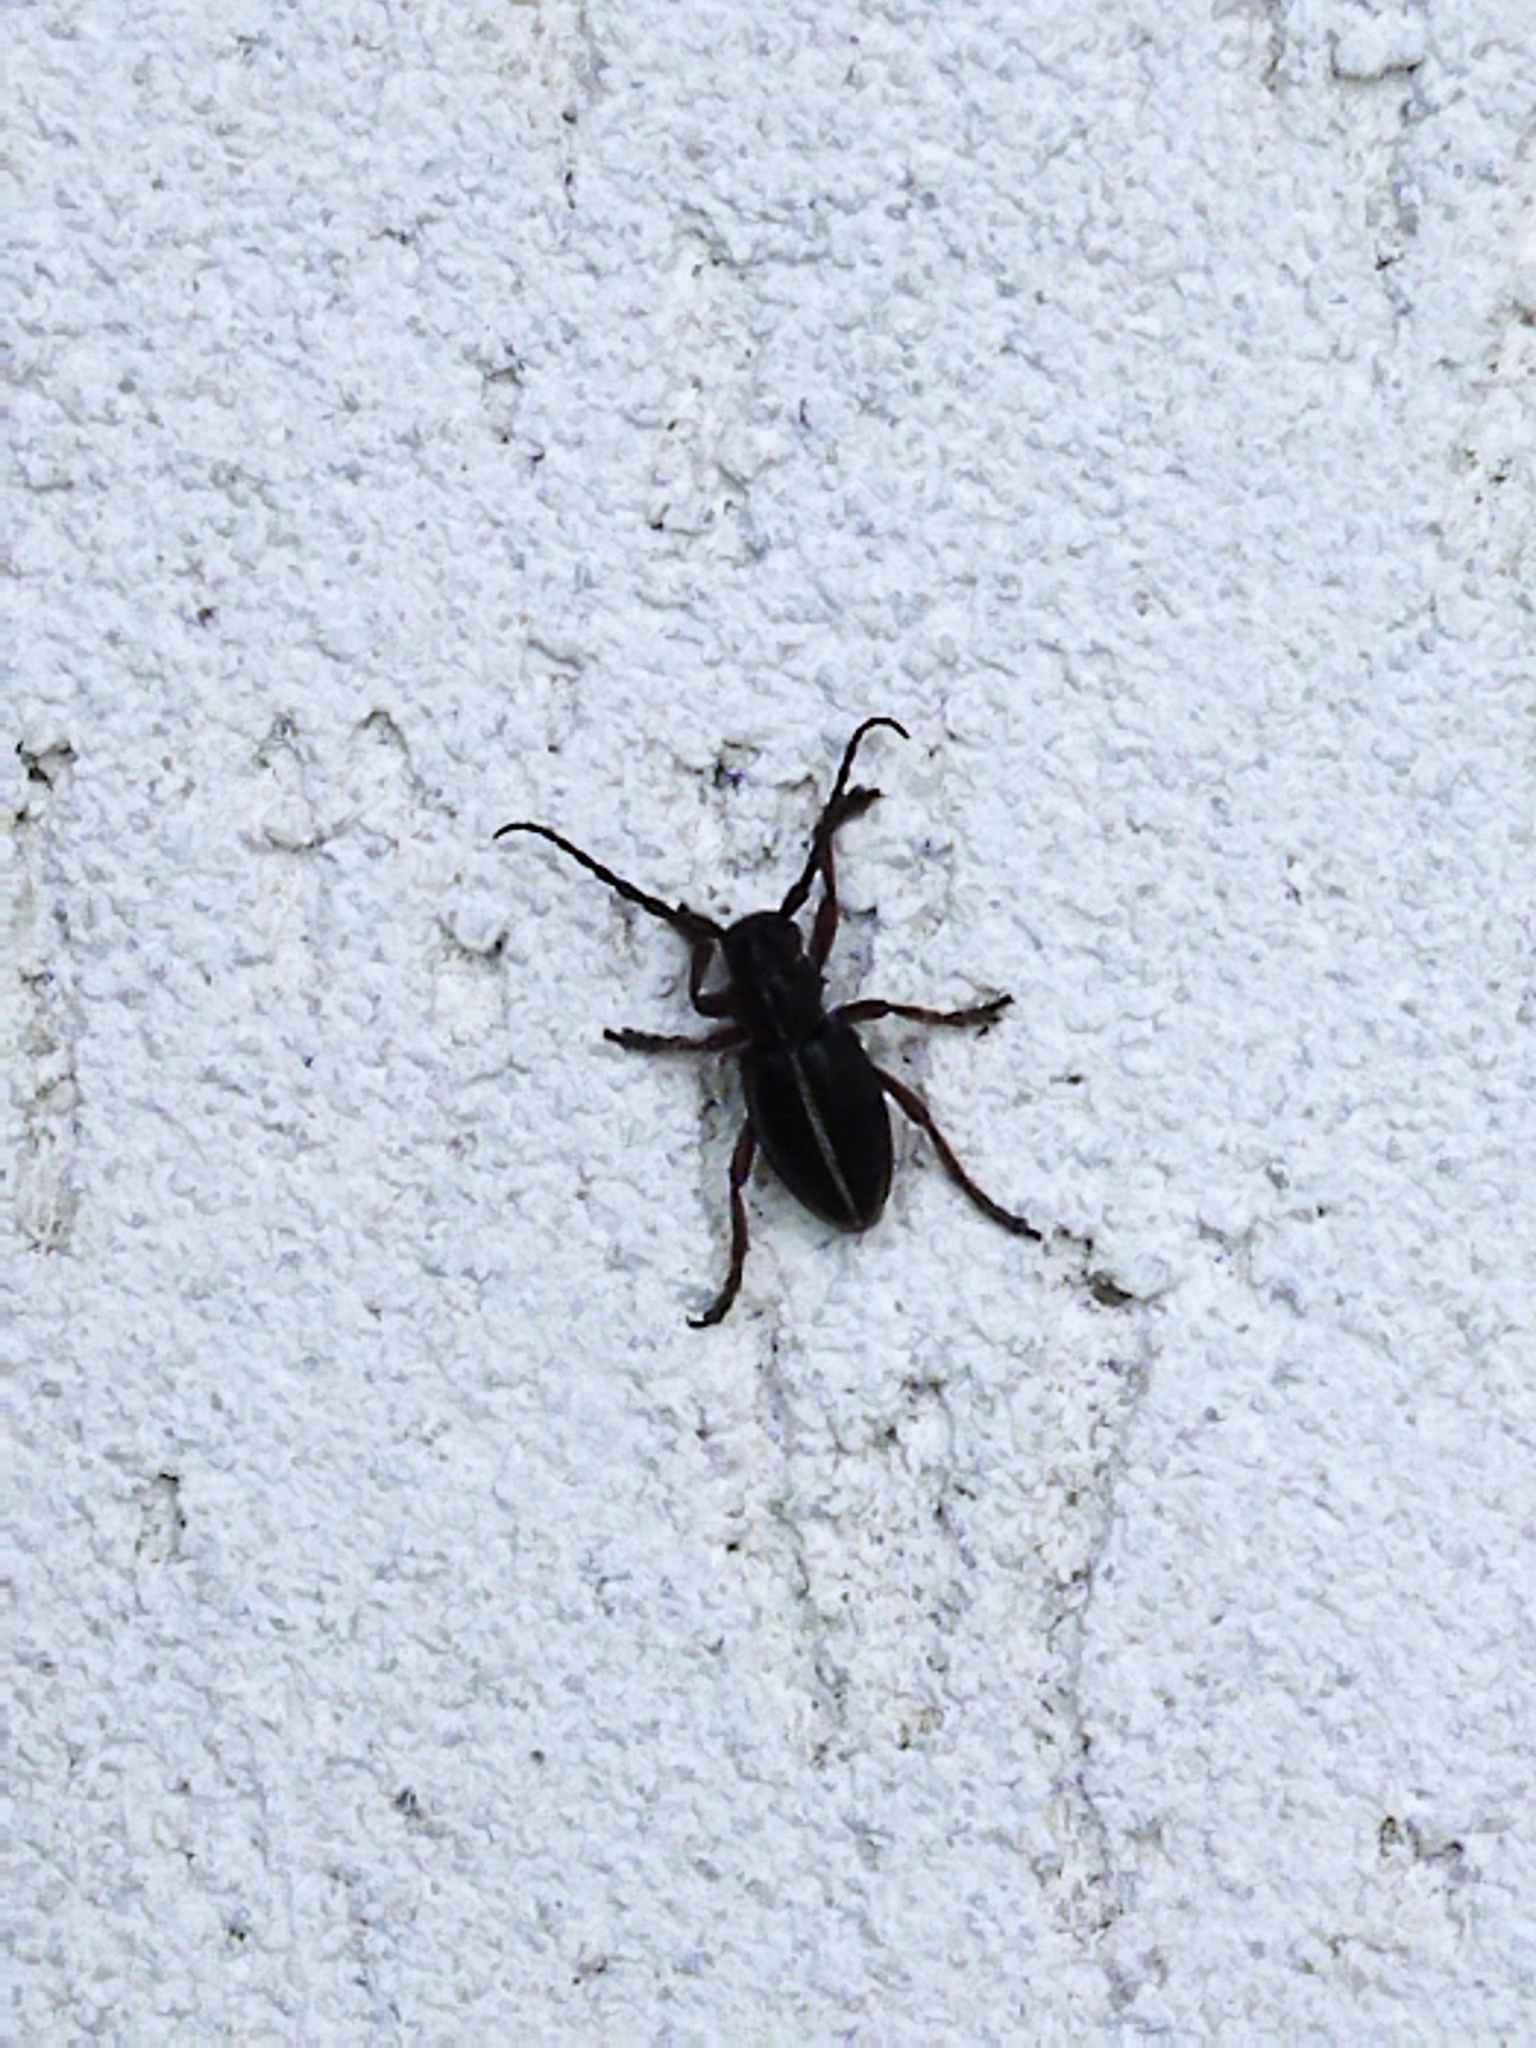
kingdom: Animalia
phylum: Arthropoda
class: Insecta
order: Coleoptera
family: Cerambycidae
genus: Dorcadion
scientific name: Dorcadion pedestre
